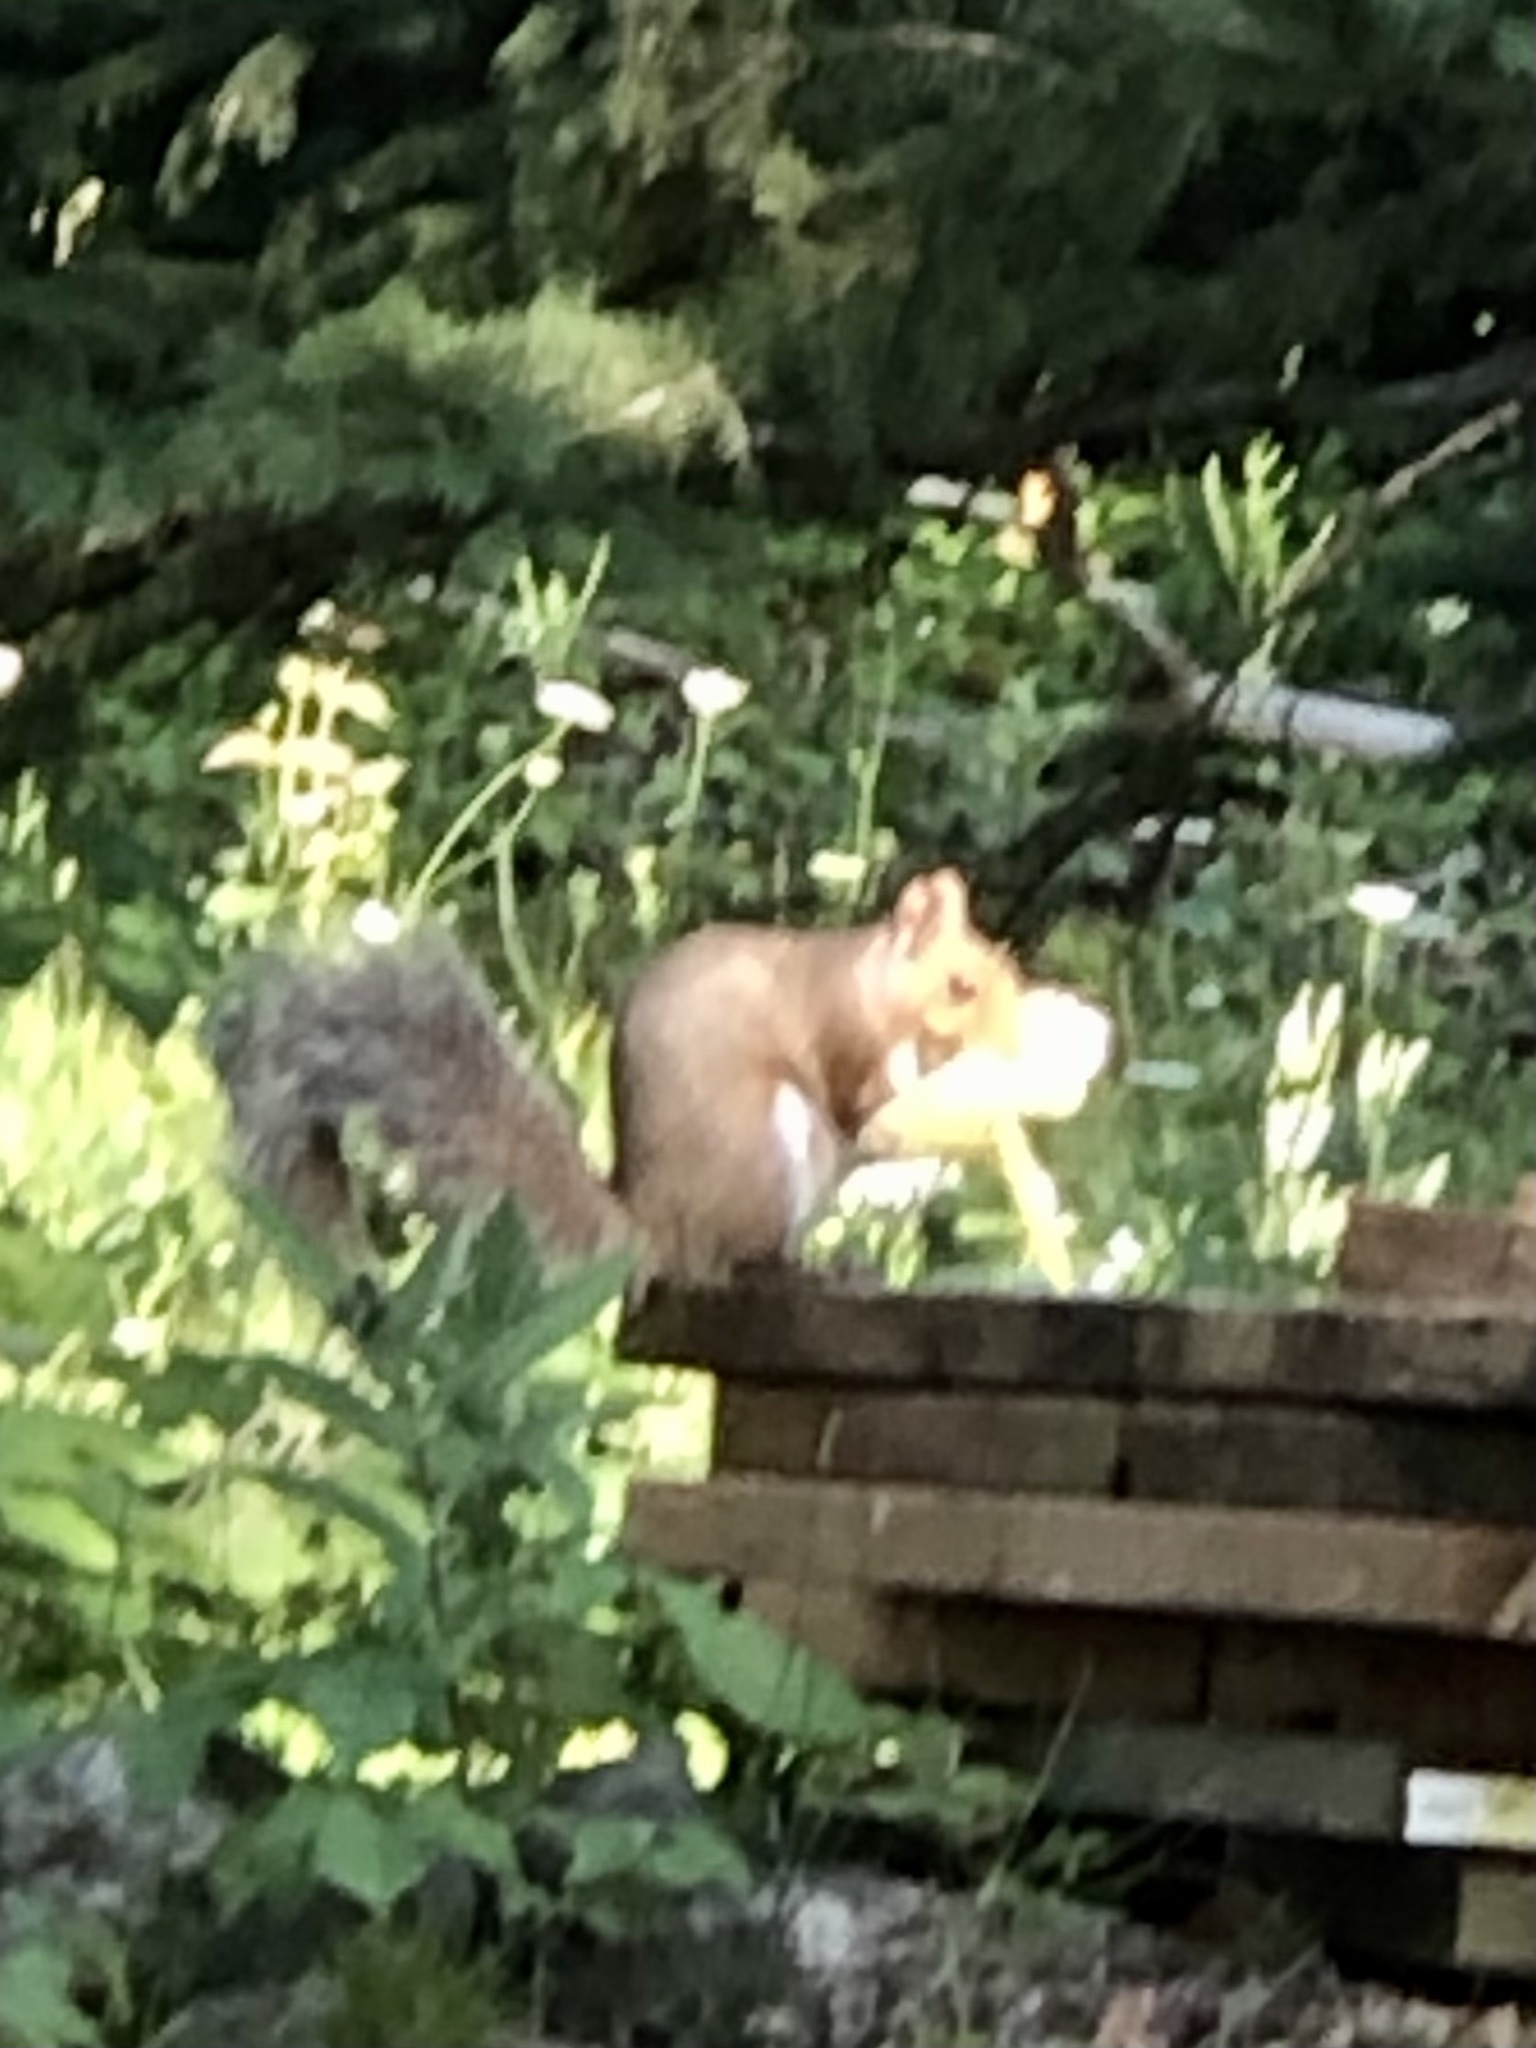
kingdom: Animalia
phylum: Chordata
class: Mammalia
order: Rodentia
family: Sciuridae
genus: Sciurus
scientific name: Sciurus carolinensis
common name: Eastern gray squirrel
